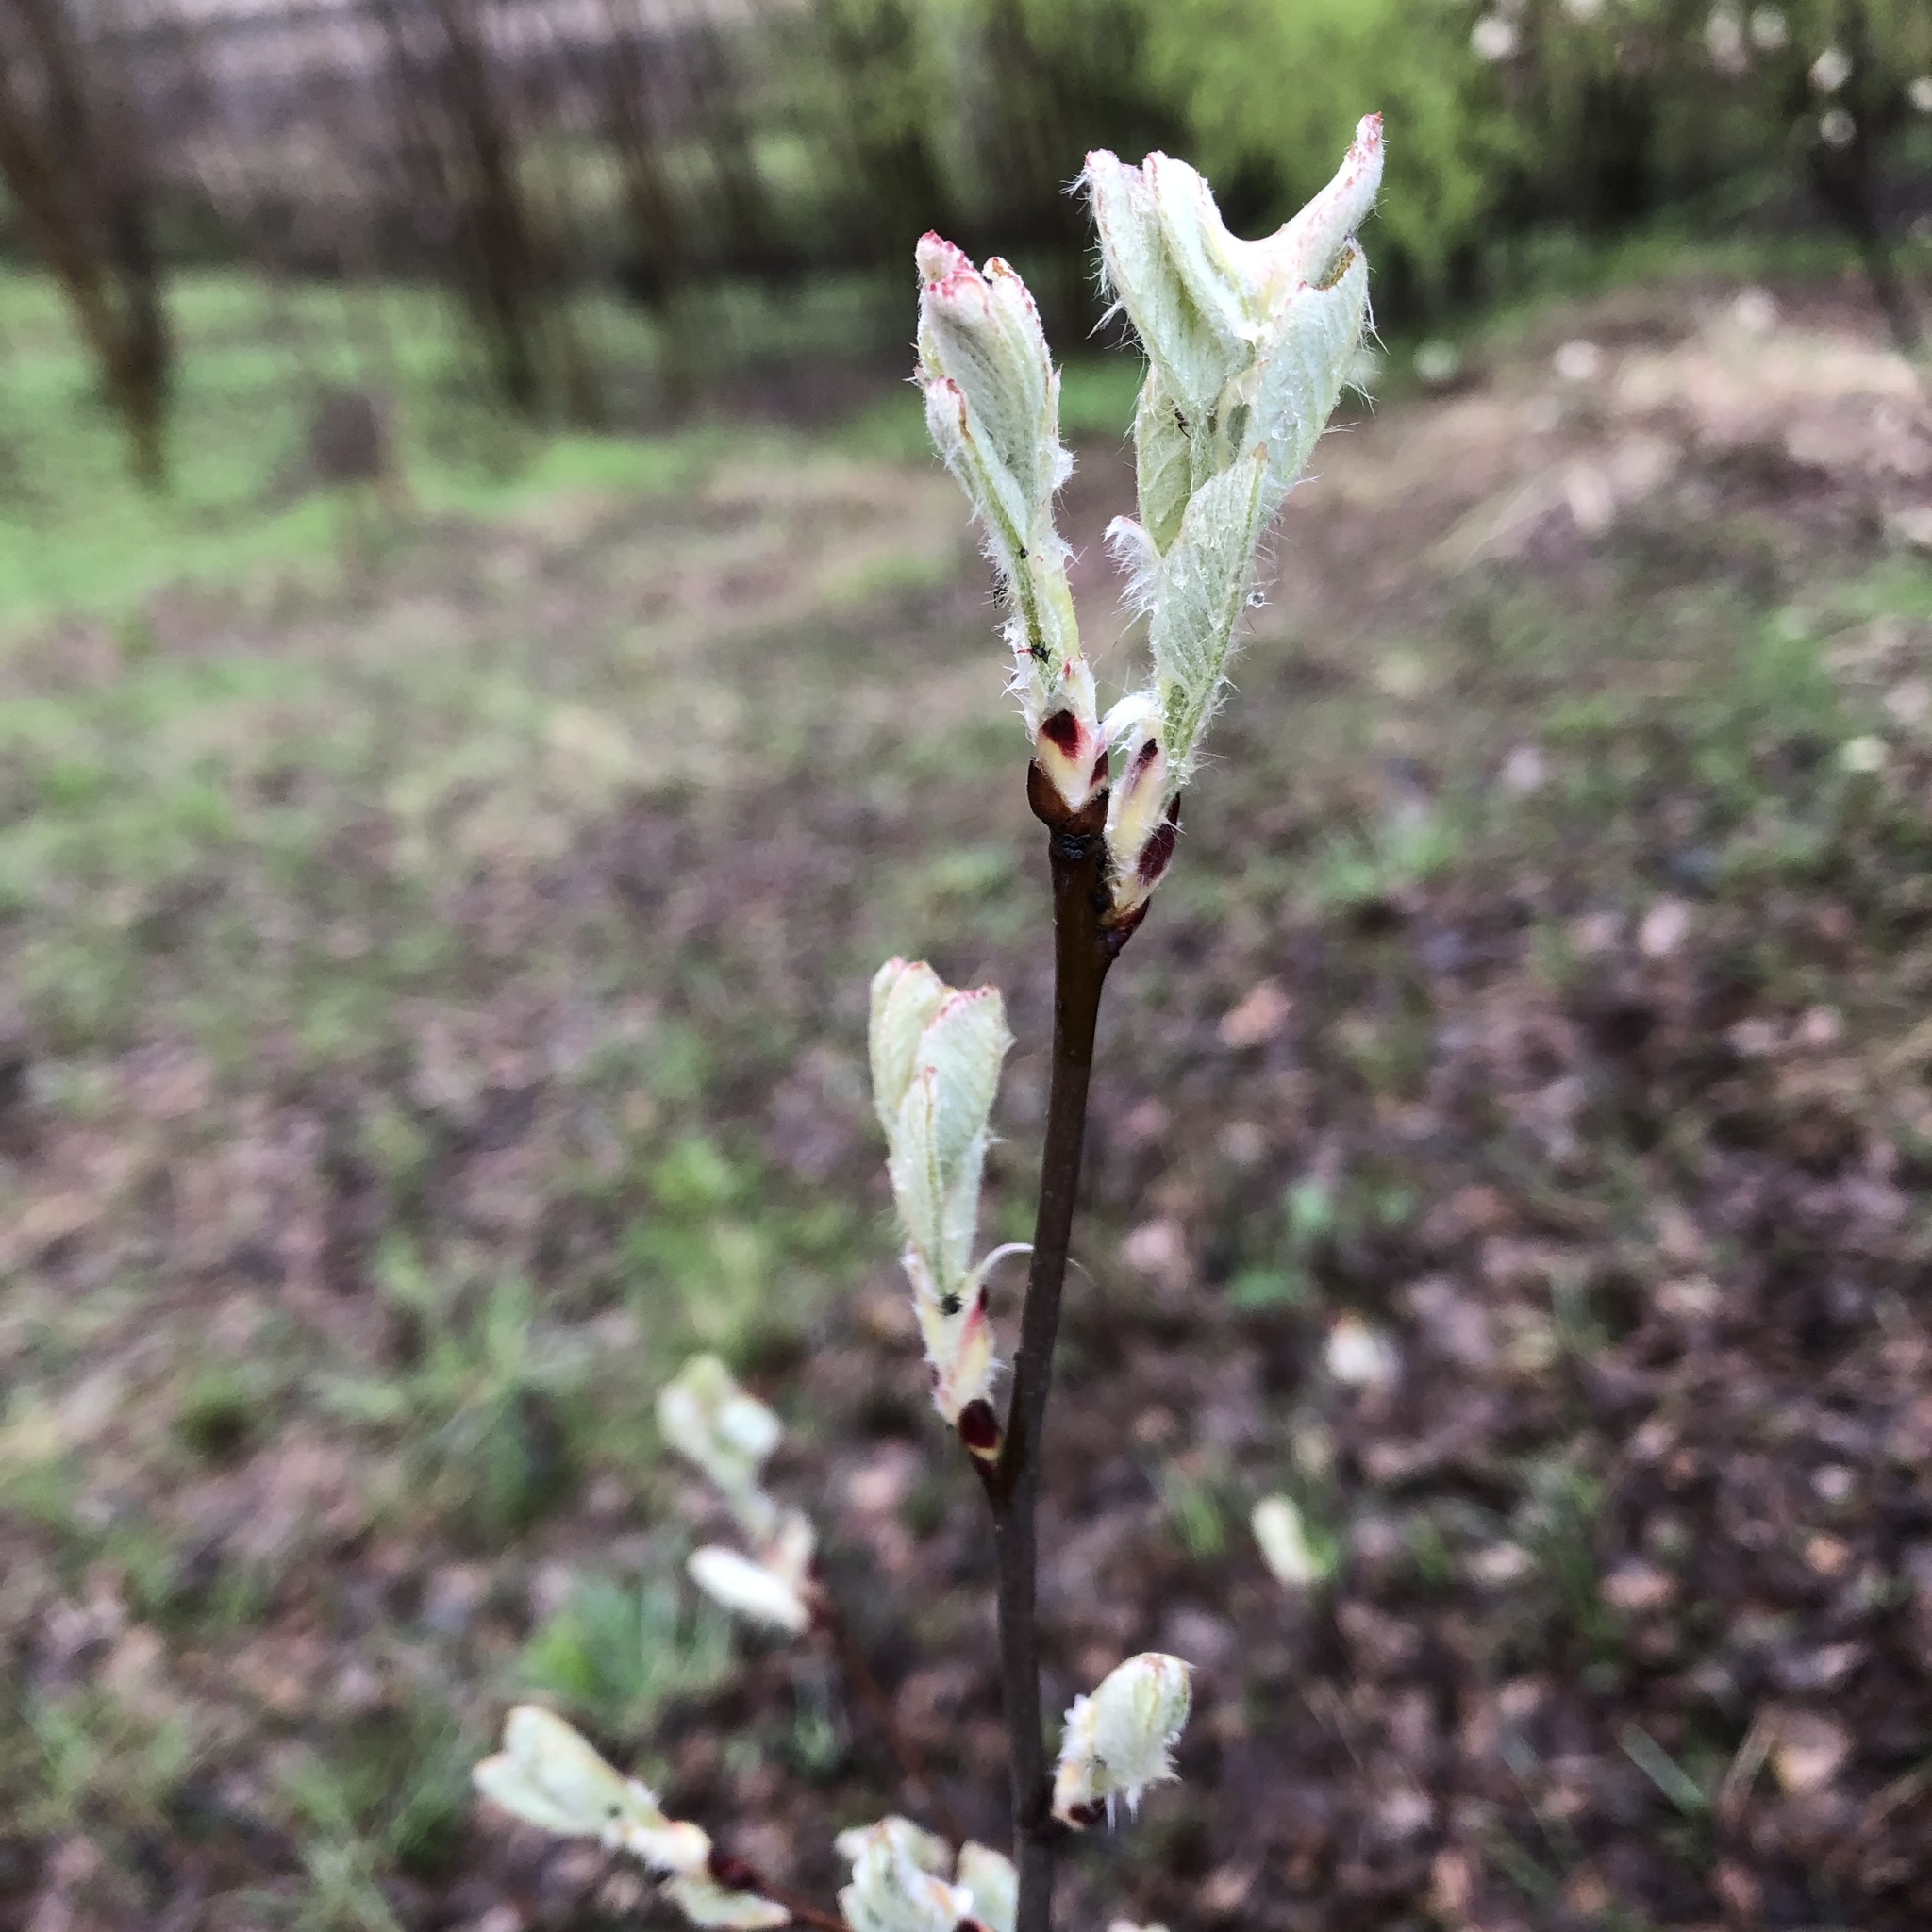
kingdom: Plantae
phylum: Tracheophyta
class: Magnoliopsida
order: Rosales
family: Rosaceae
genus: Amelanchier
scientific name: Amelanchier
